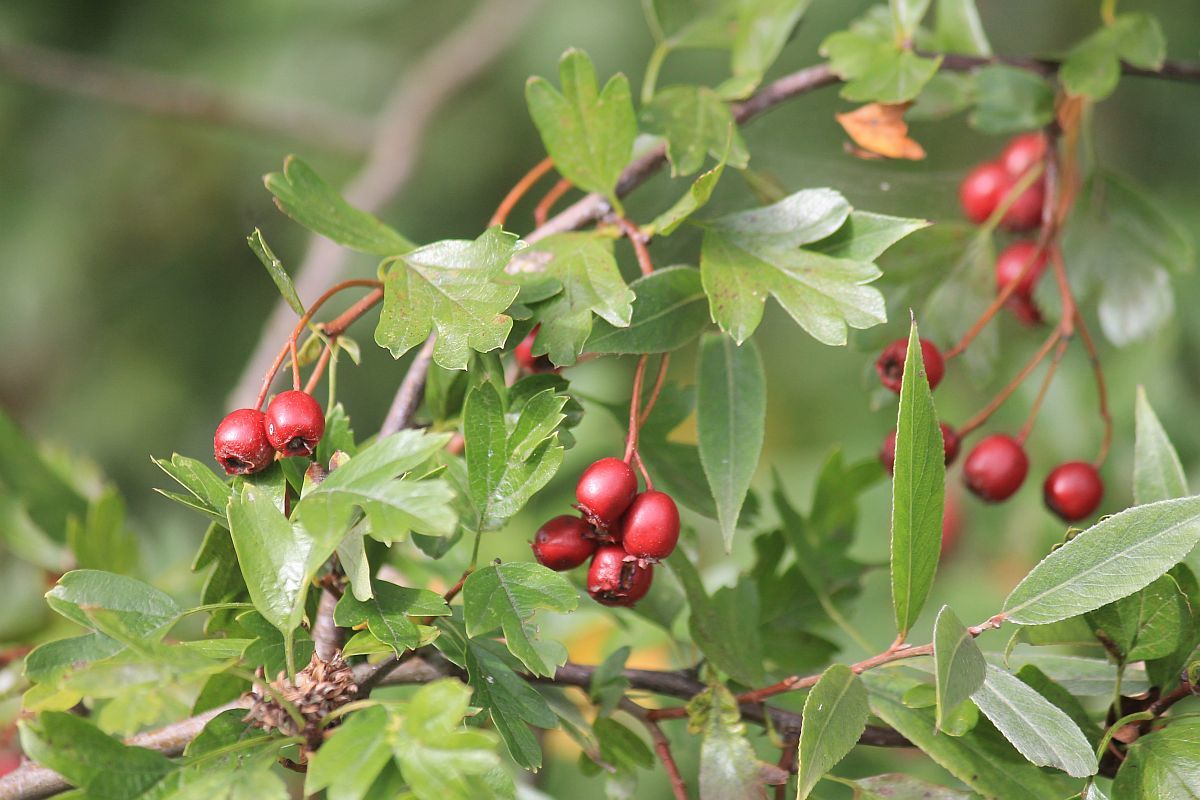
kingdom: Plantae
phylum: Tracheophyta
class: Magnoliopsida
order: Rosales
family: Rosaceae
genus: Crataegus
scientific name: Crataegus monogyna
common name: Hawthorn
